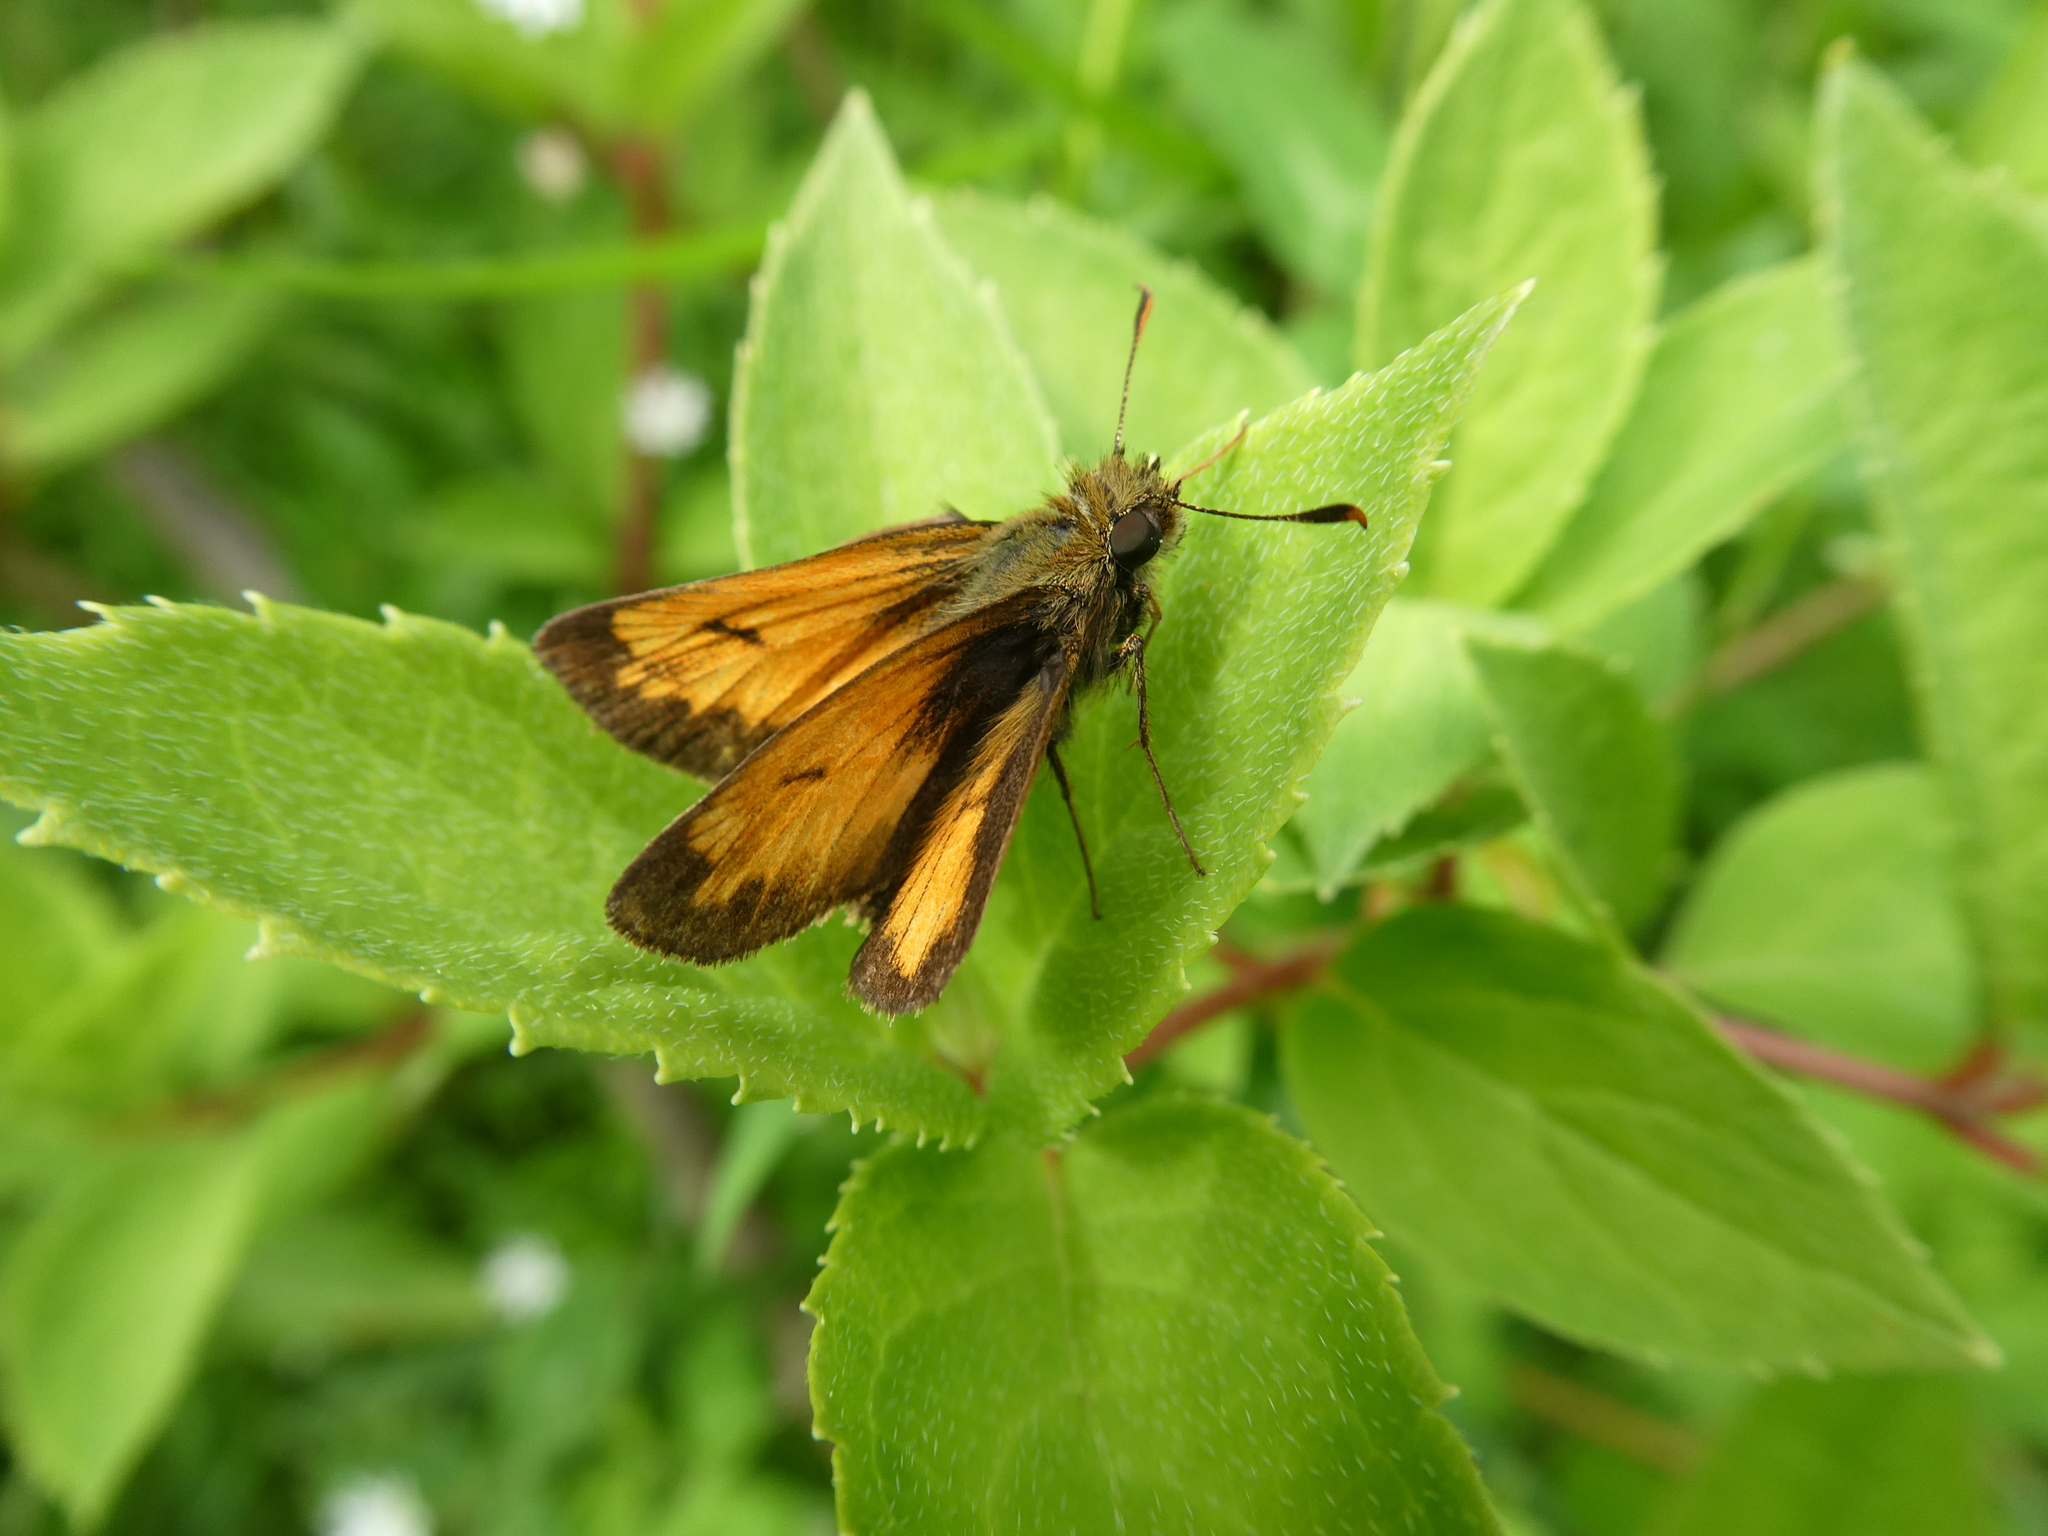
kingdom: Animalia
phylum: Arthropoda
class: Insecta
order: Lepidoptera
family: Hesperiidae
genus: Lon
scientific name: Lon hobomok
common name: Hobomok skipper
